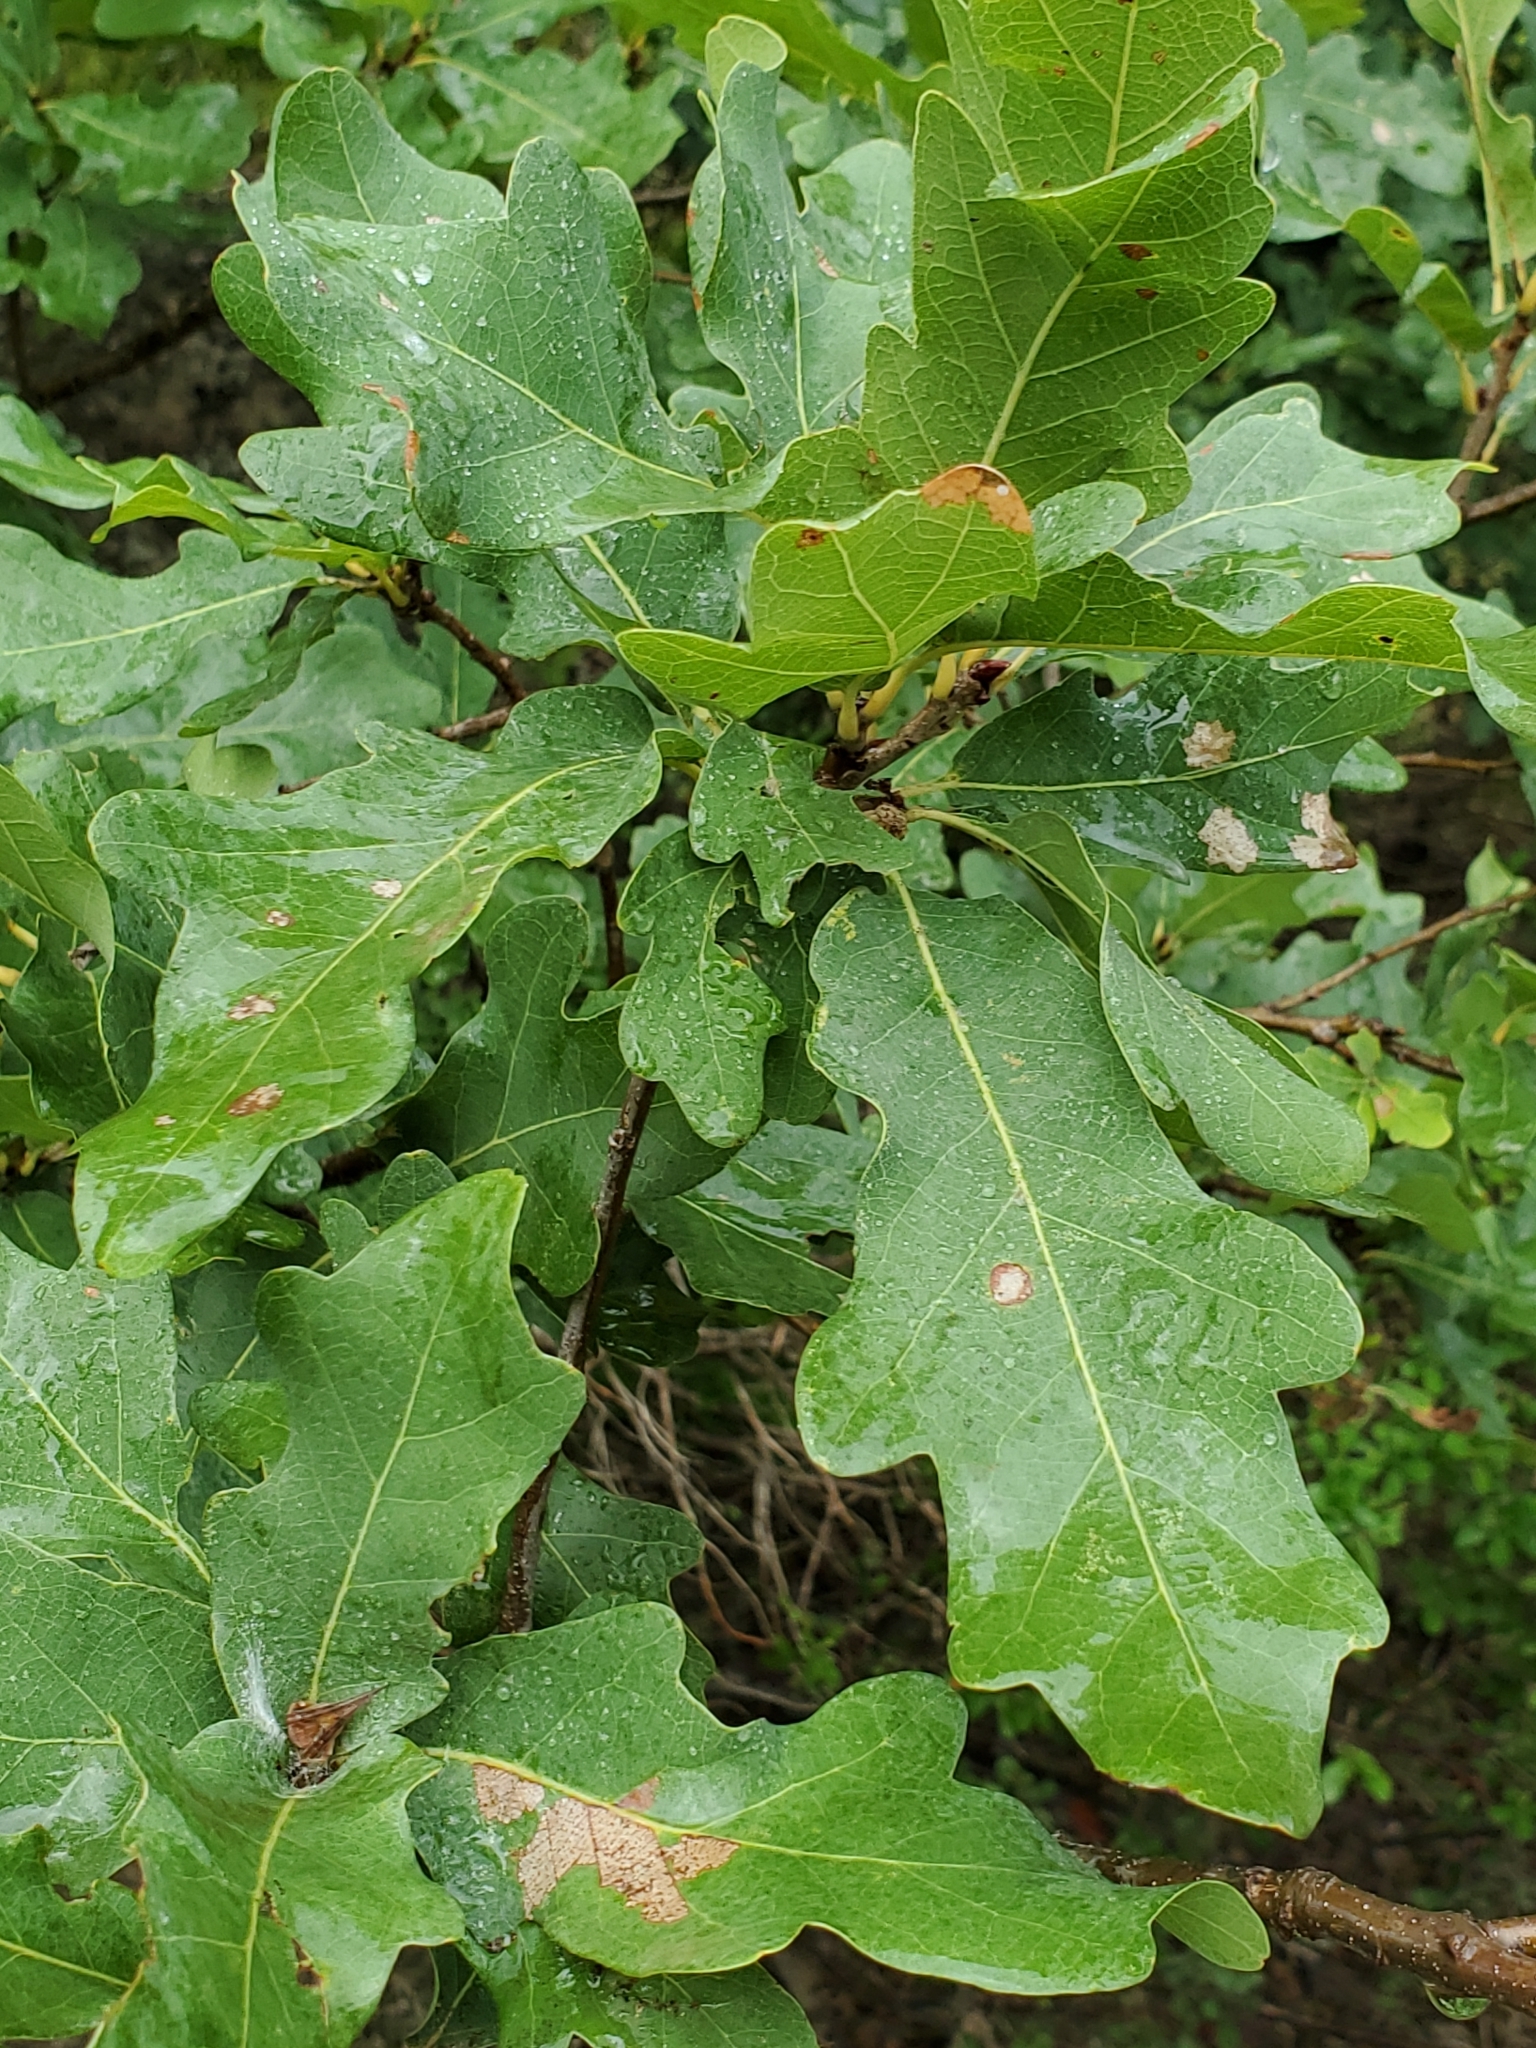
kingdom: Plantae
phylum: Tracheophyta
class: Magnoliopsida
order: Fagales
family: Fagaceae
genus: Quercus
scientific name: Quercus laceyi
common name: Lacey oak
